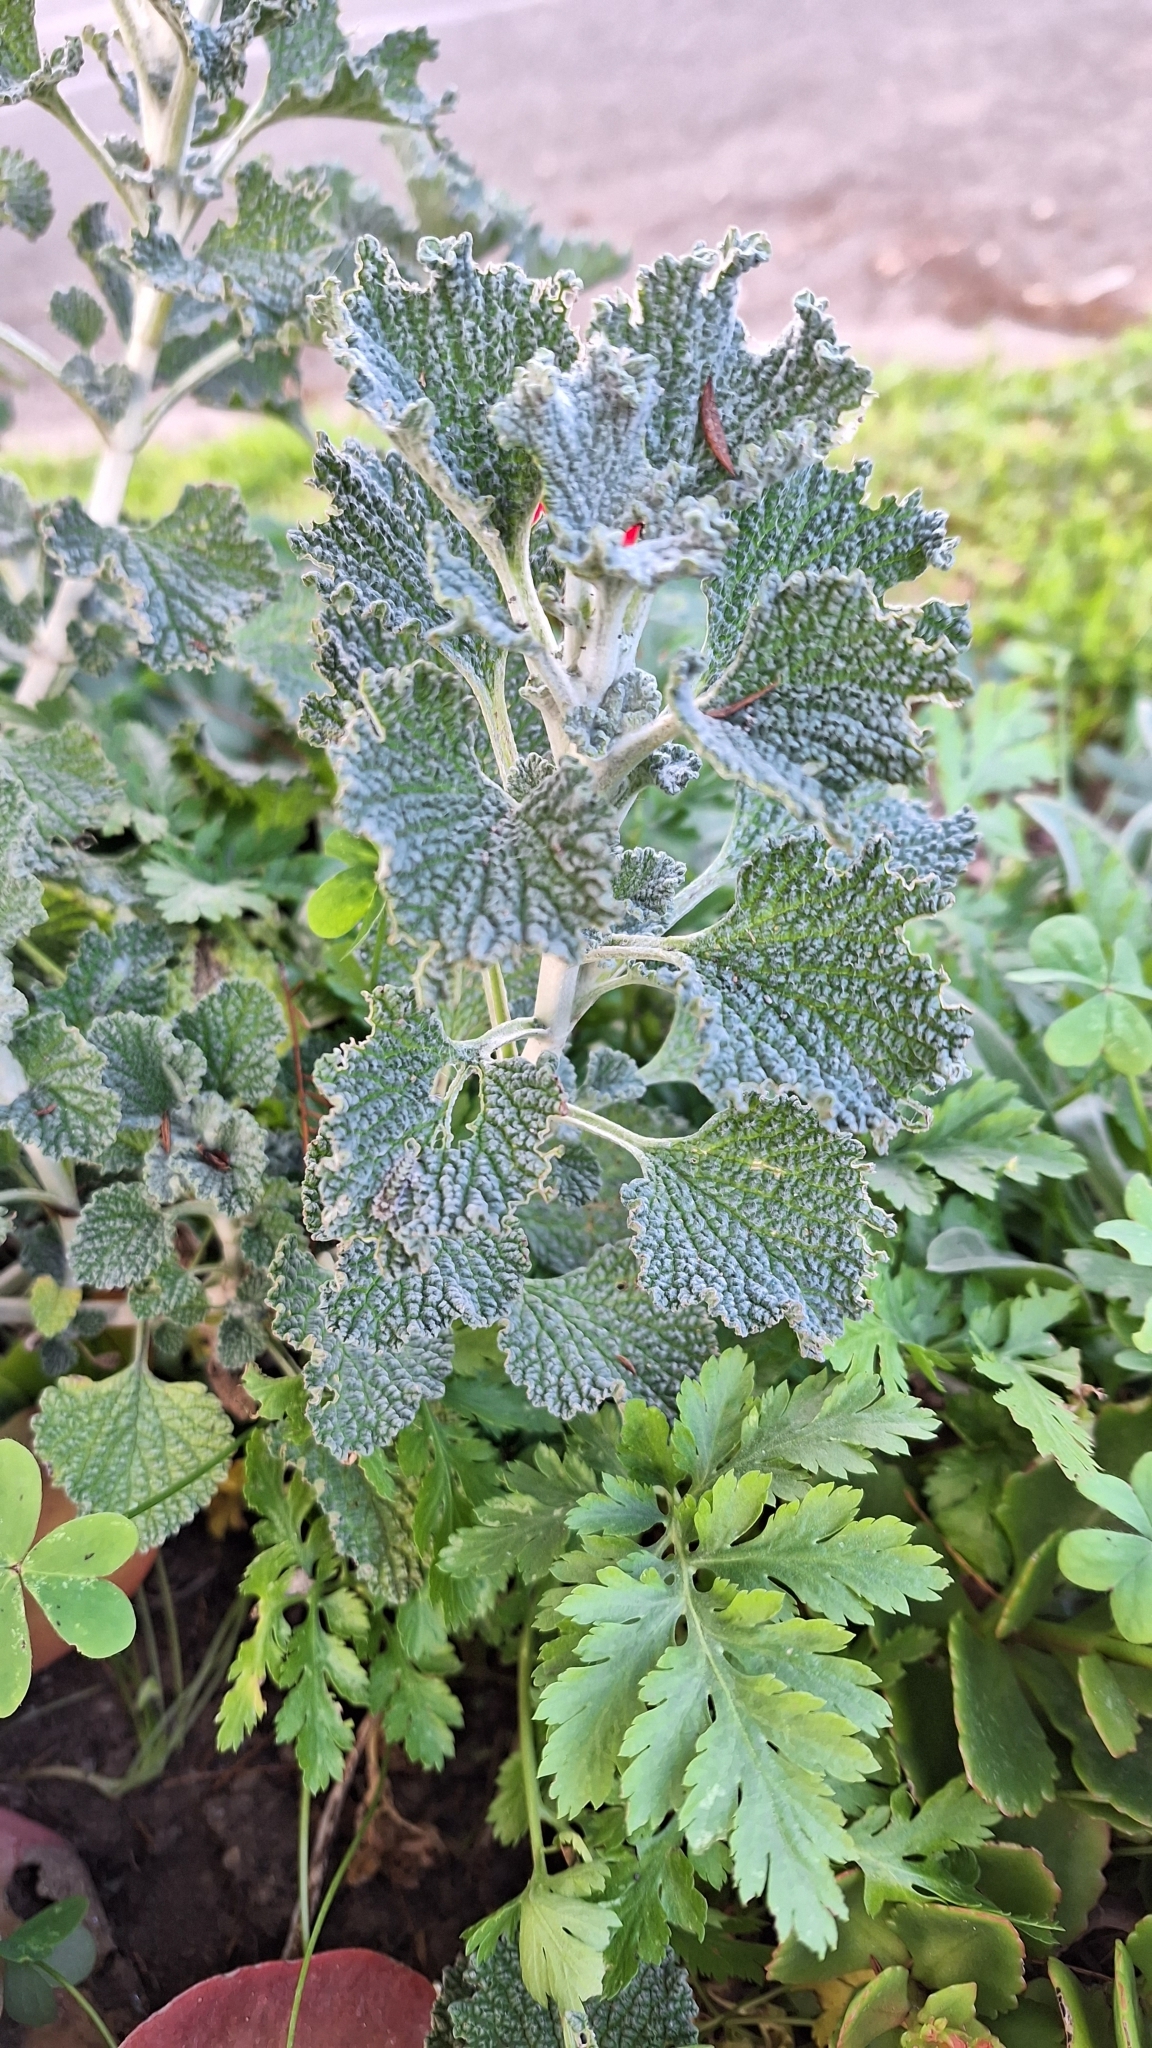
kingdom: Plantae
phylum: Tracheophyta
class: Magnoliopsida
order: Lamiales
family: Lamiaceae
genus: Marrubium
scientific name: Marrubium vulgare
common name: Horehound
